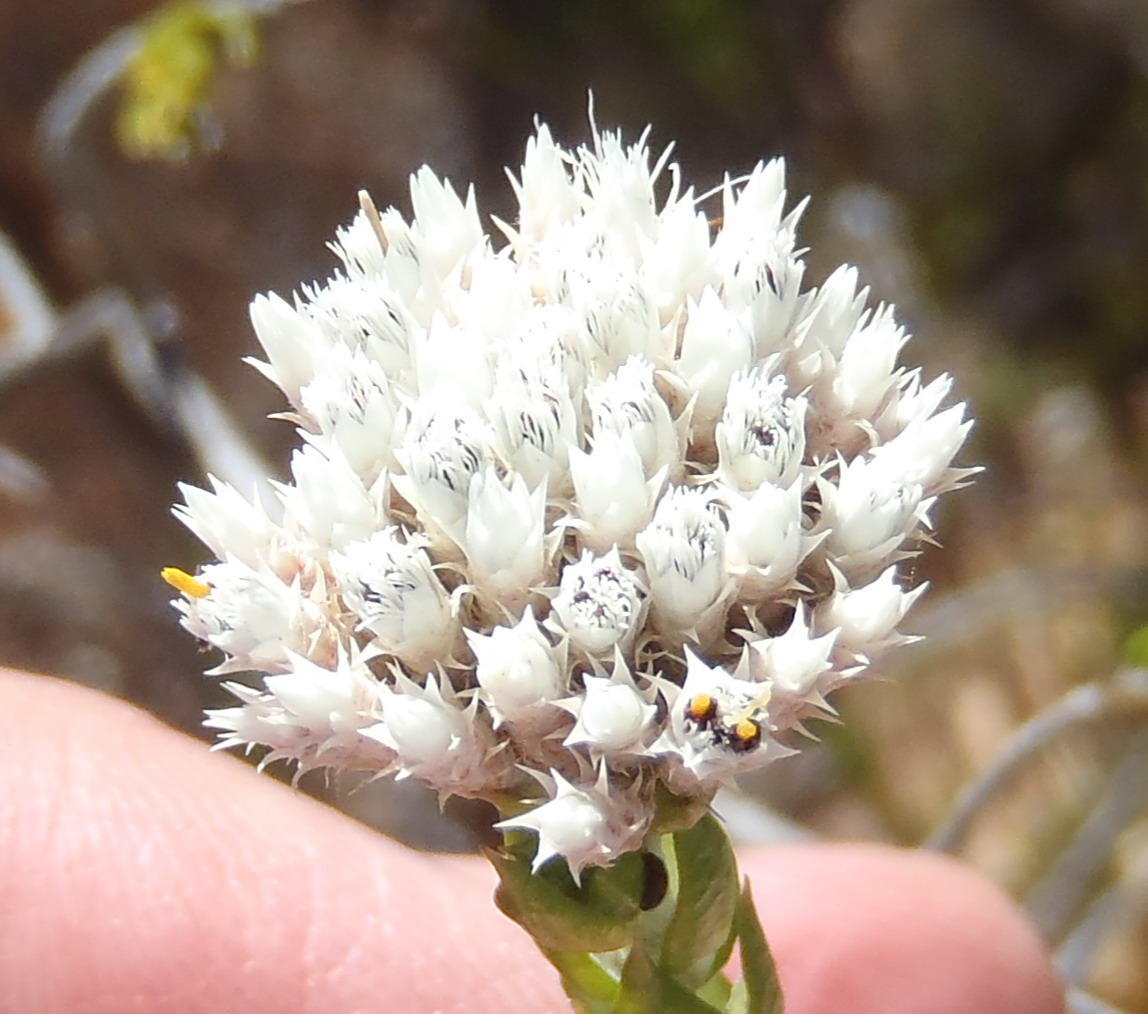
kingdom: Plantae
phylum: Tracheophyta
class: Magnoliopsida
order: Asterales
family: Asteraceae
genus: Metalasia
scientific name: Metalasia pulcherrima
